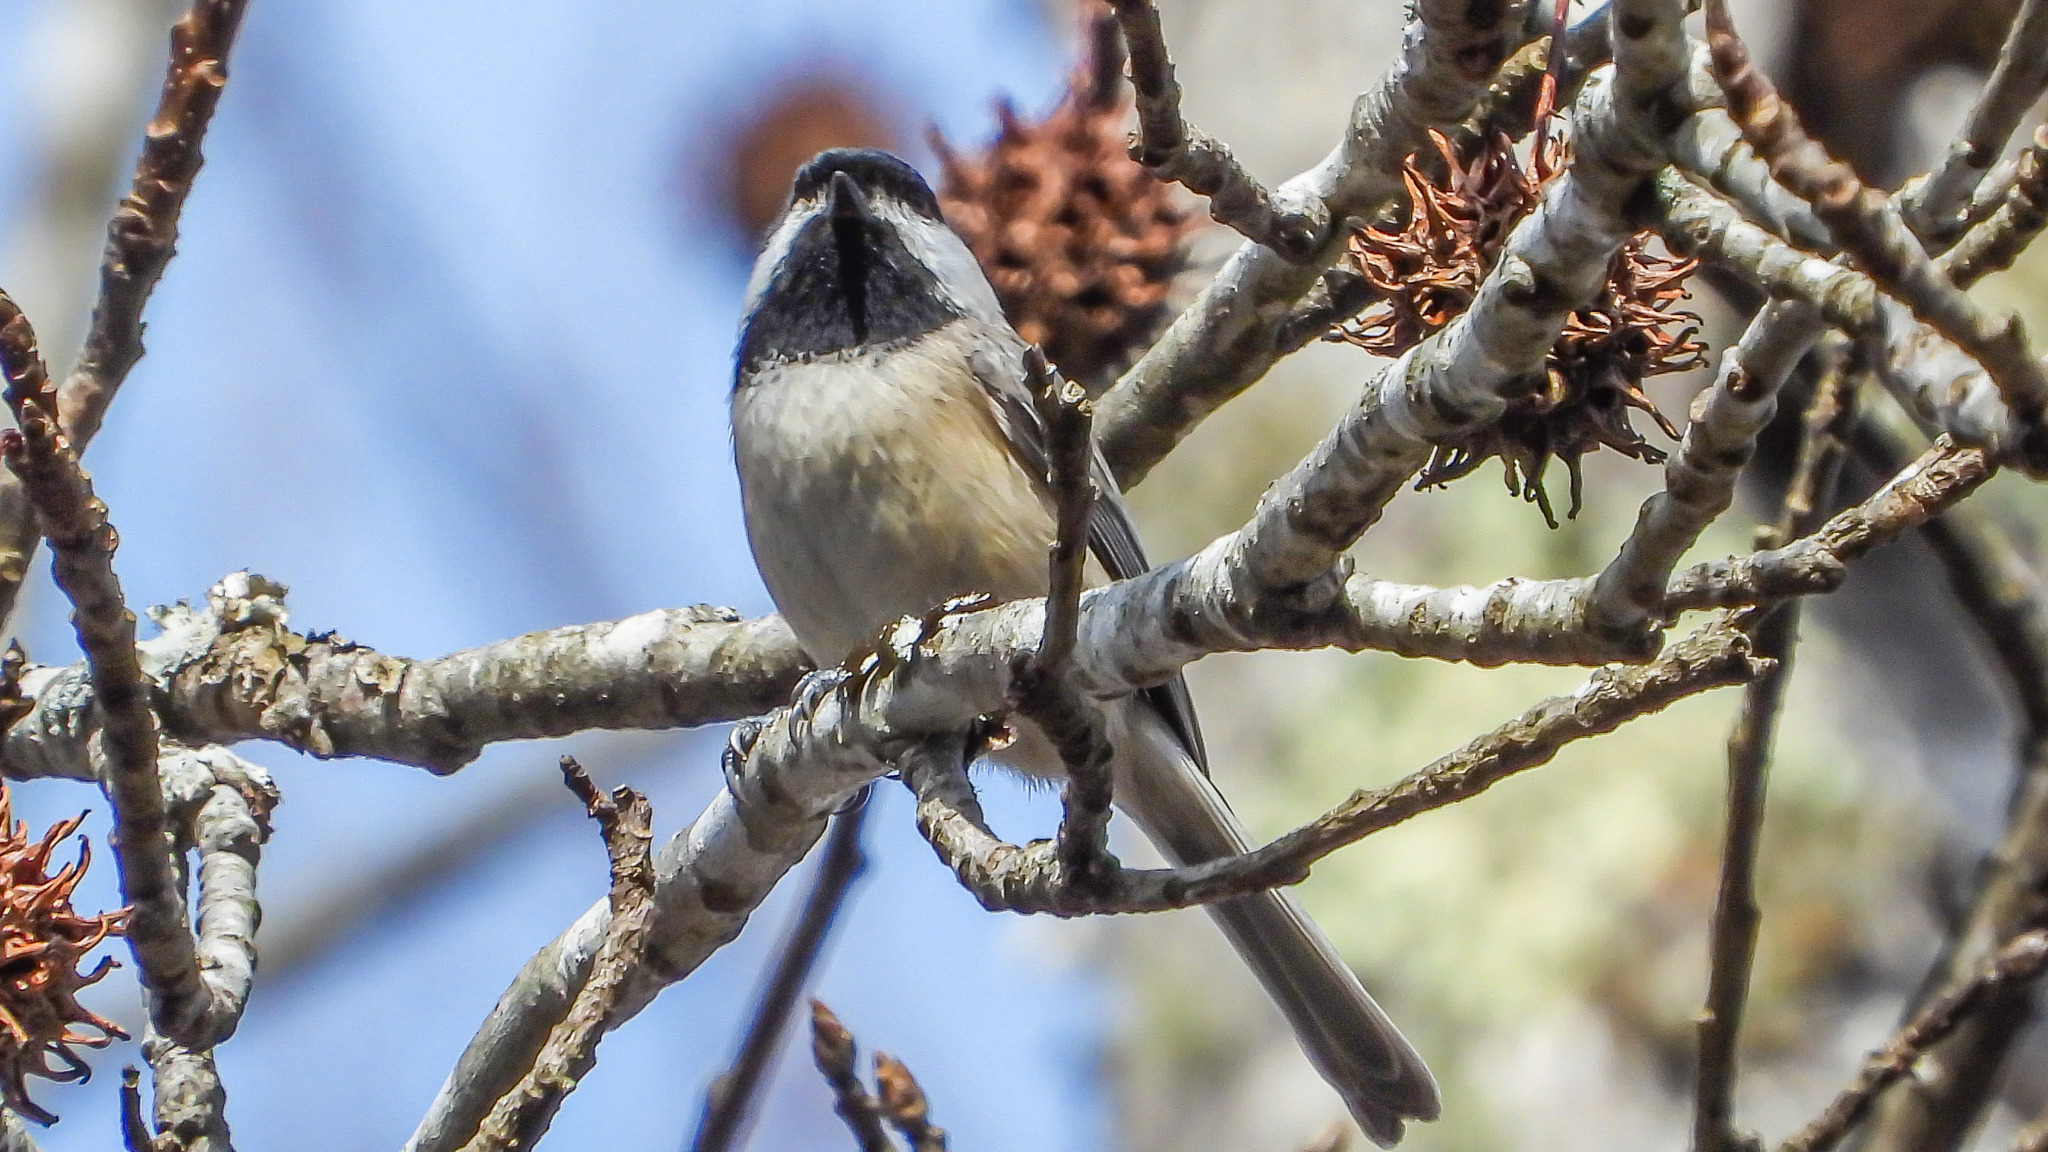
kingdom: Animalia
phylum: Chordata
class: Aves
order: Passeriformes
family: Paridae
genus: Poecile
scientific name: Poecile carolinensis
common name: Carolina chickadee
